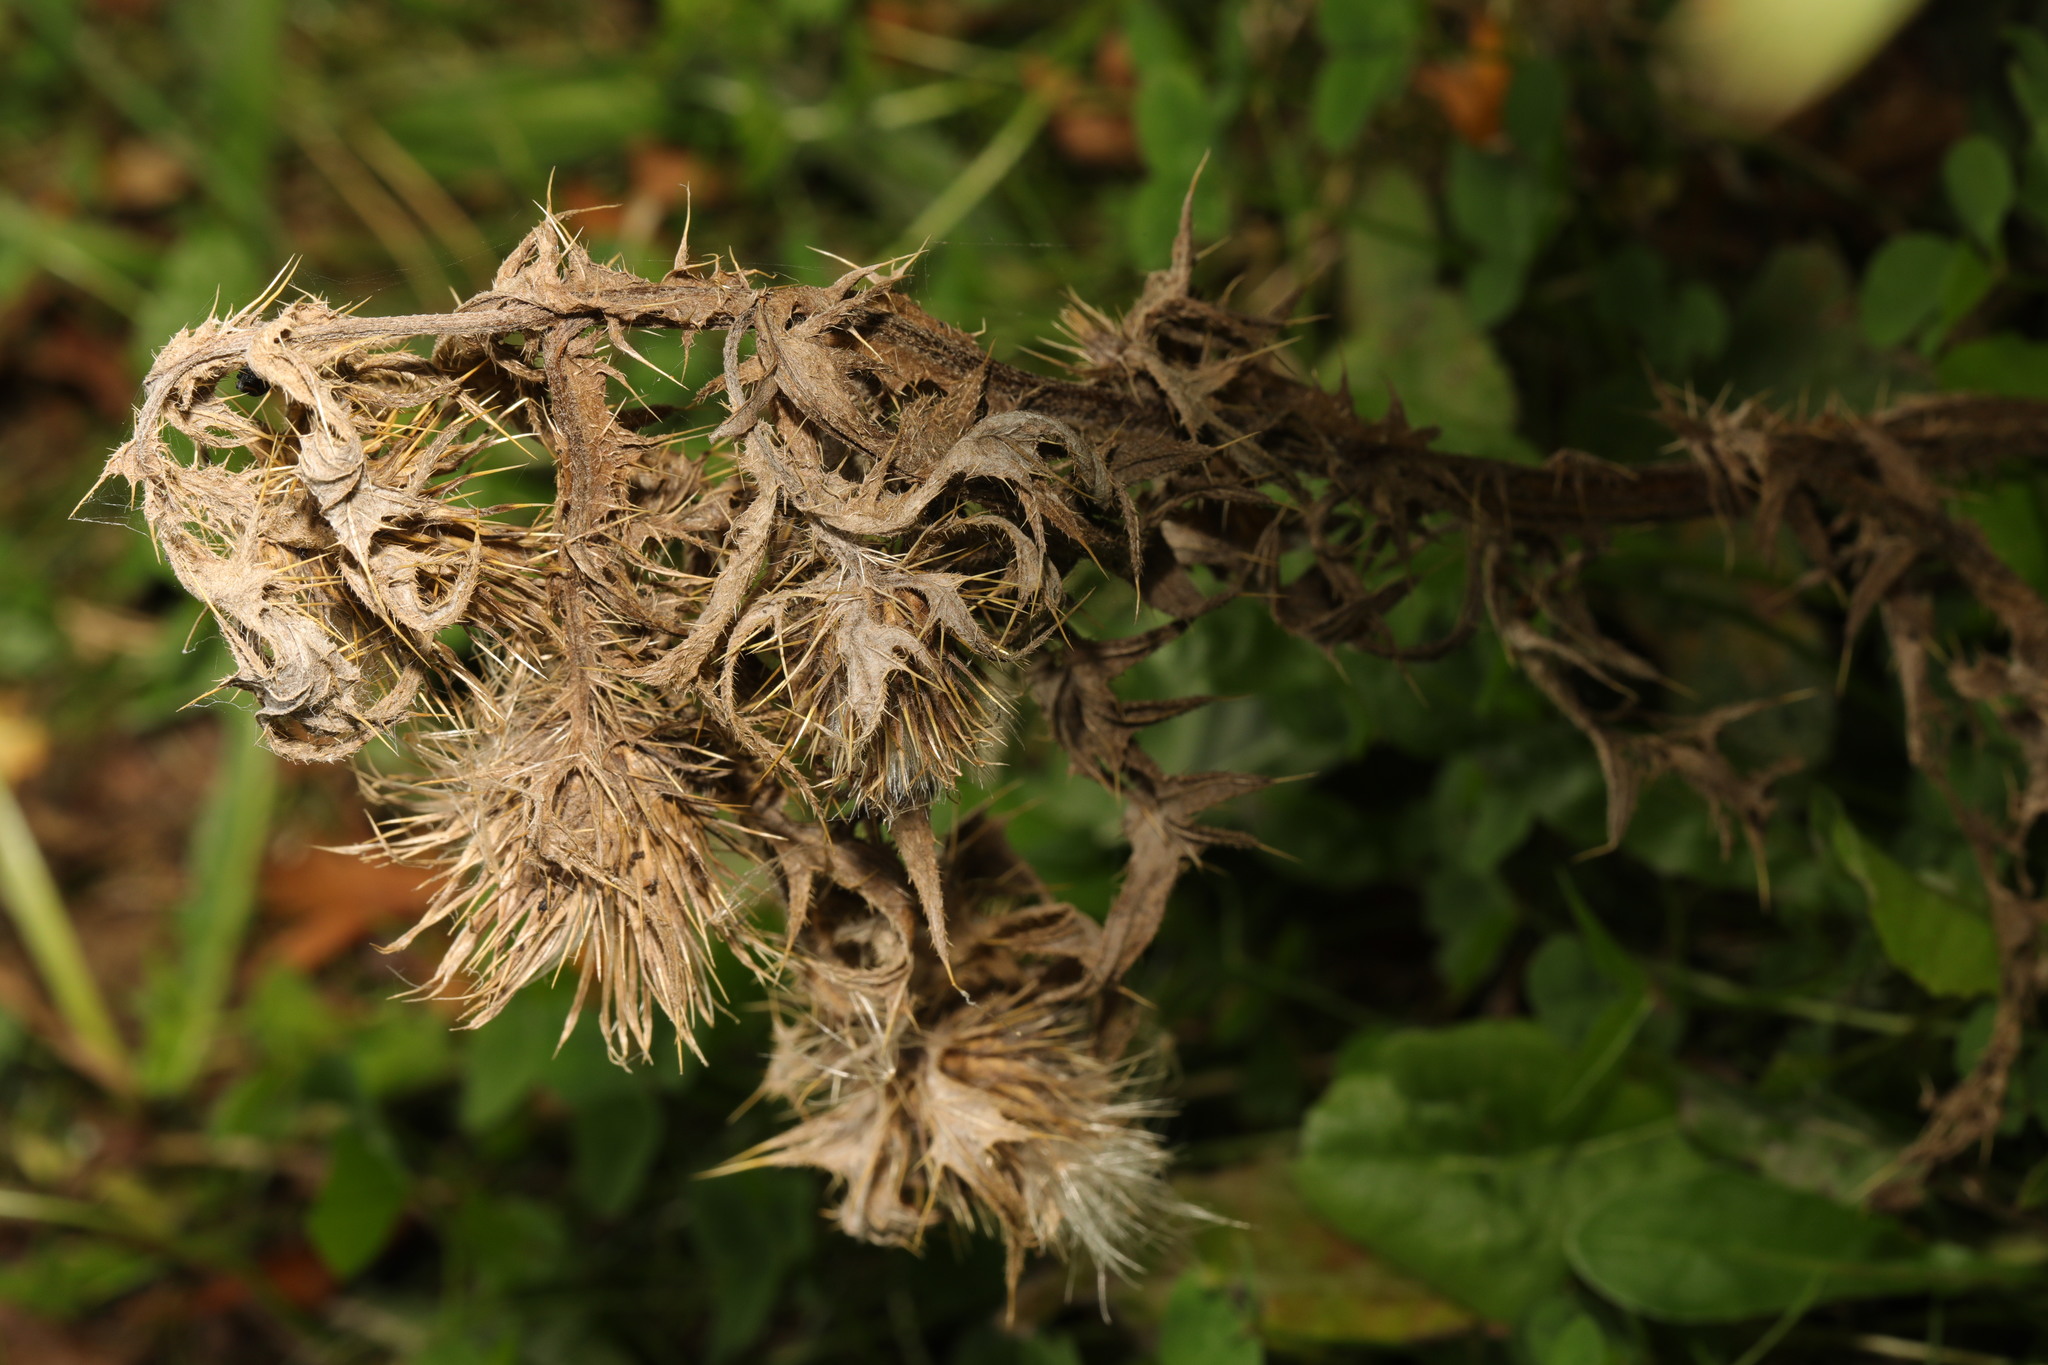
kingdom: Plantae
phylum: Tracheophyta
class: Magnoliopsida
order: Asterales
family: Asteraceae
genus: Cirsium
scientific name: Cirsium vulgare
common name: Bull thistle
